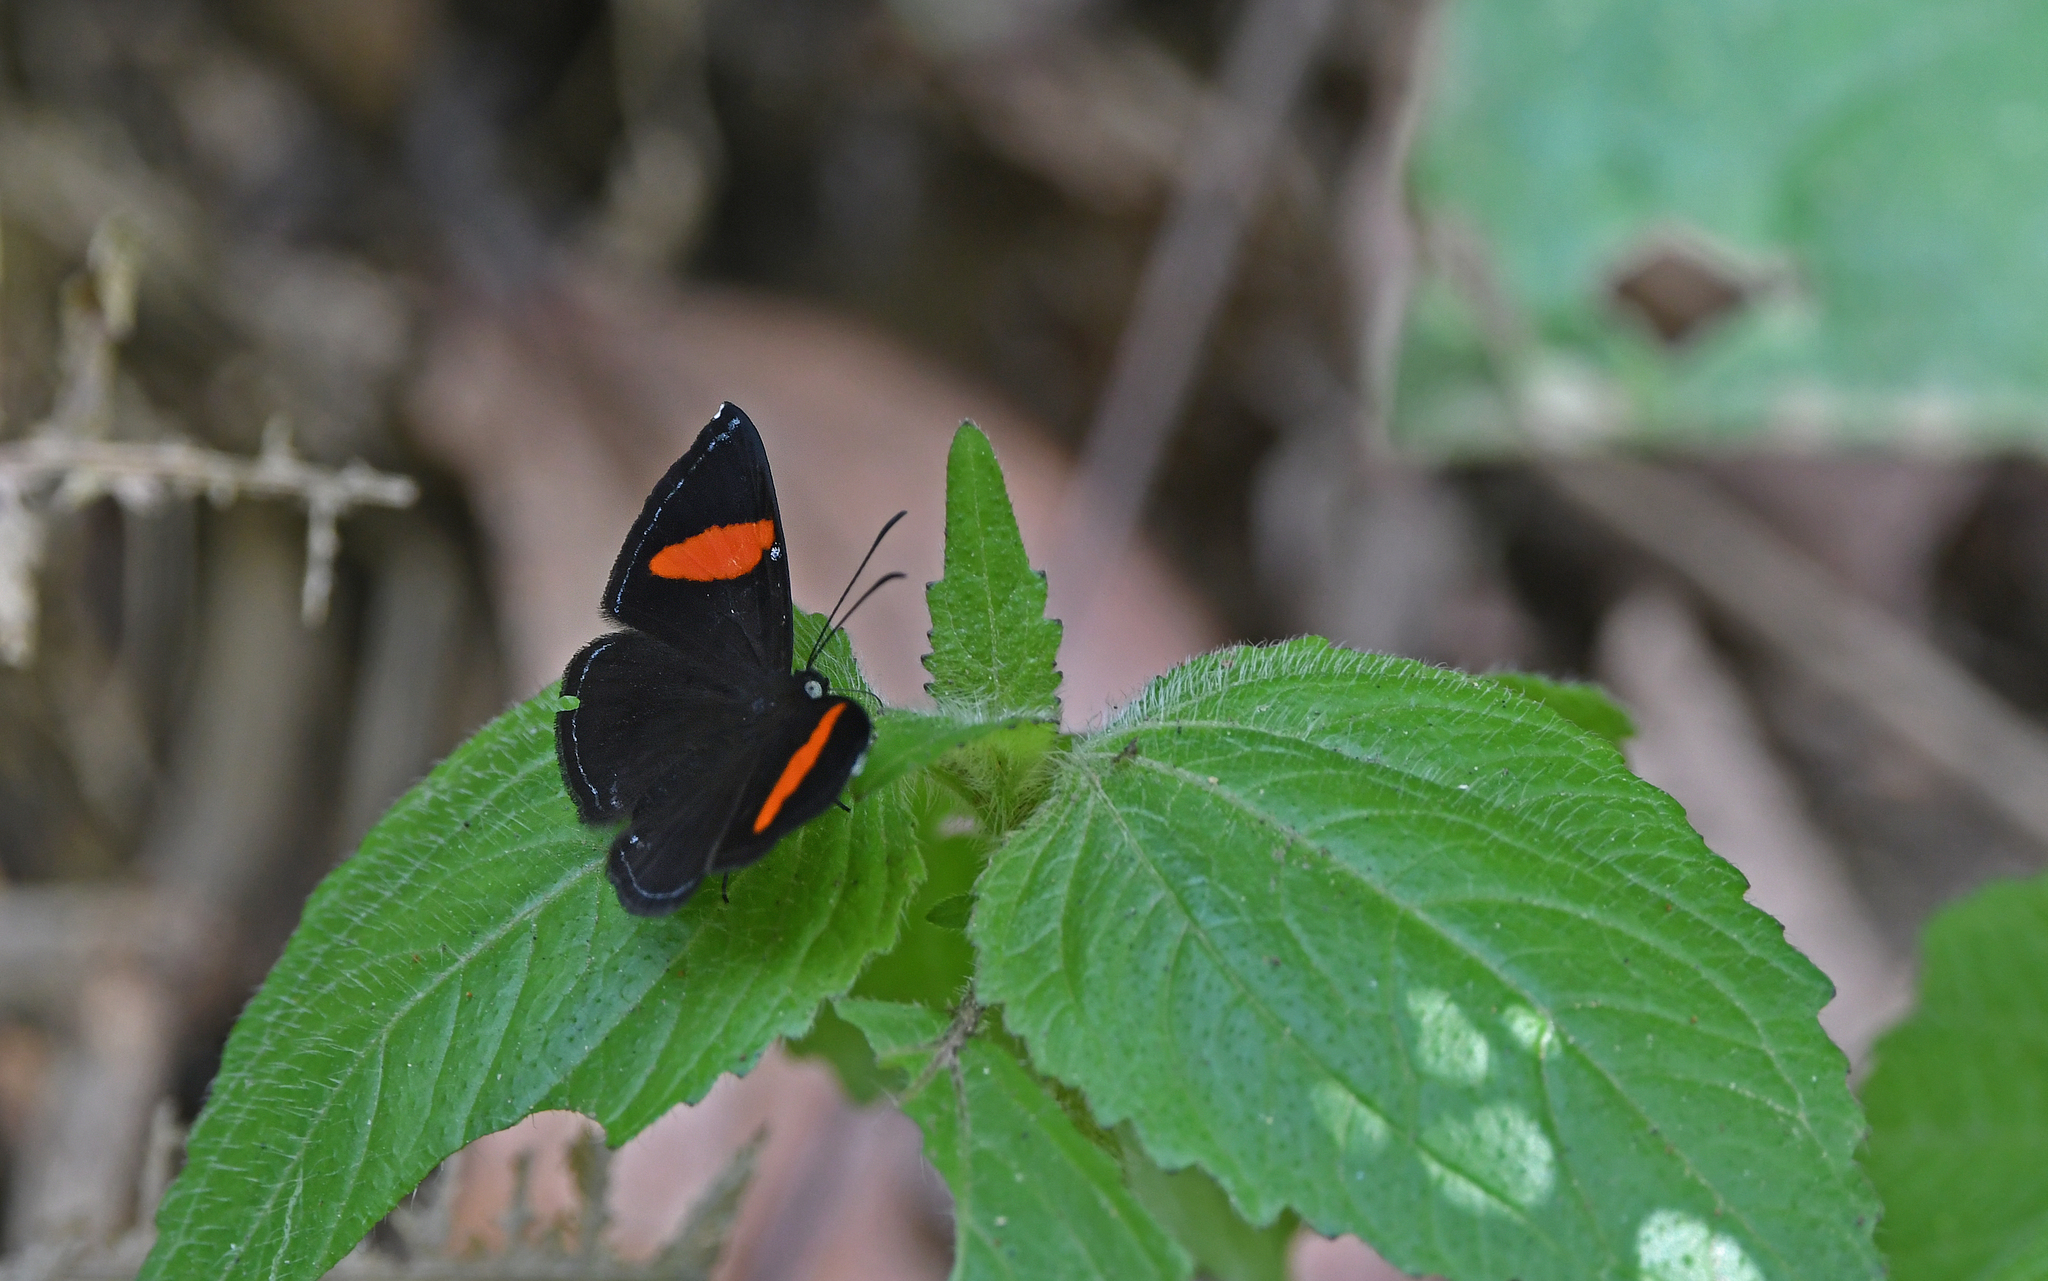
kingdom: Animalia
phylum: Arthropoda
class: Insecta
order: Lepidoptera
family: Riodinidae
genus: Crocozona
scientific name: Crocozona fasciata
